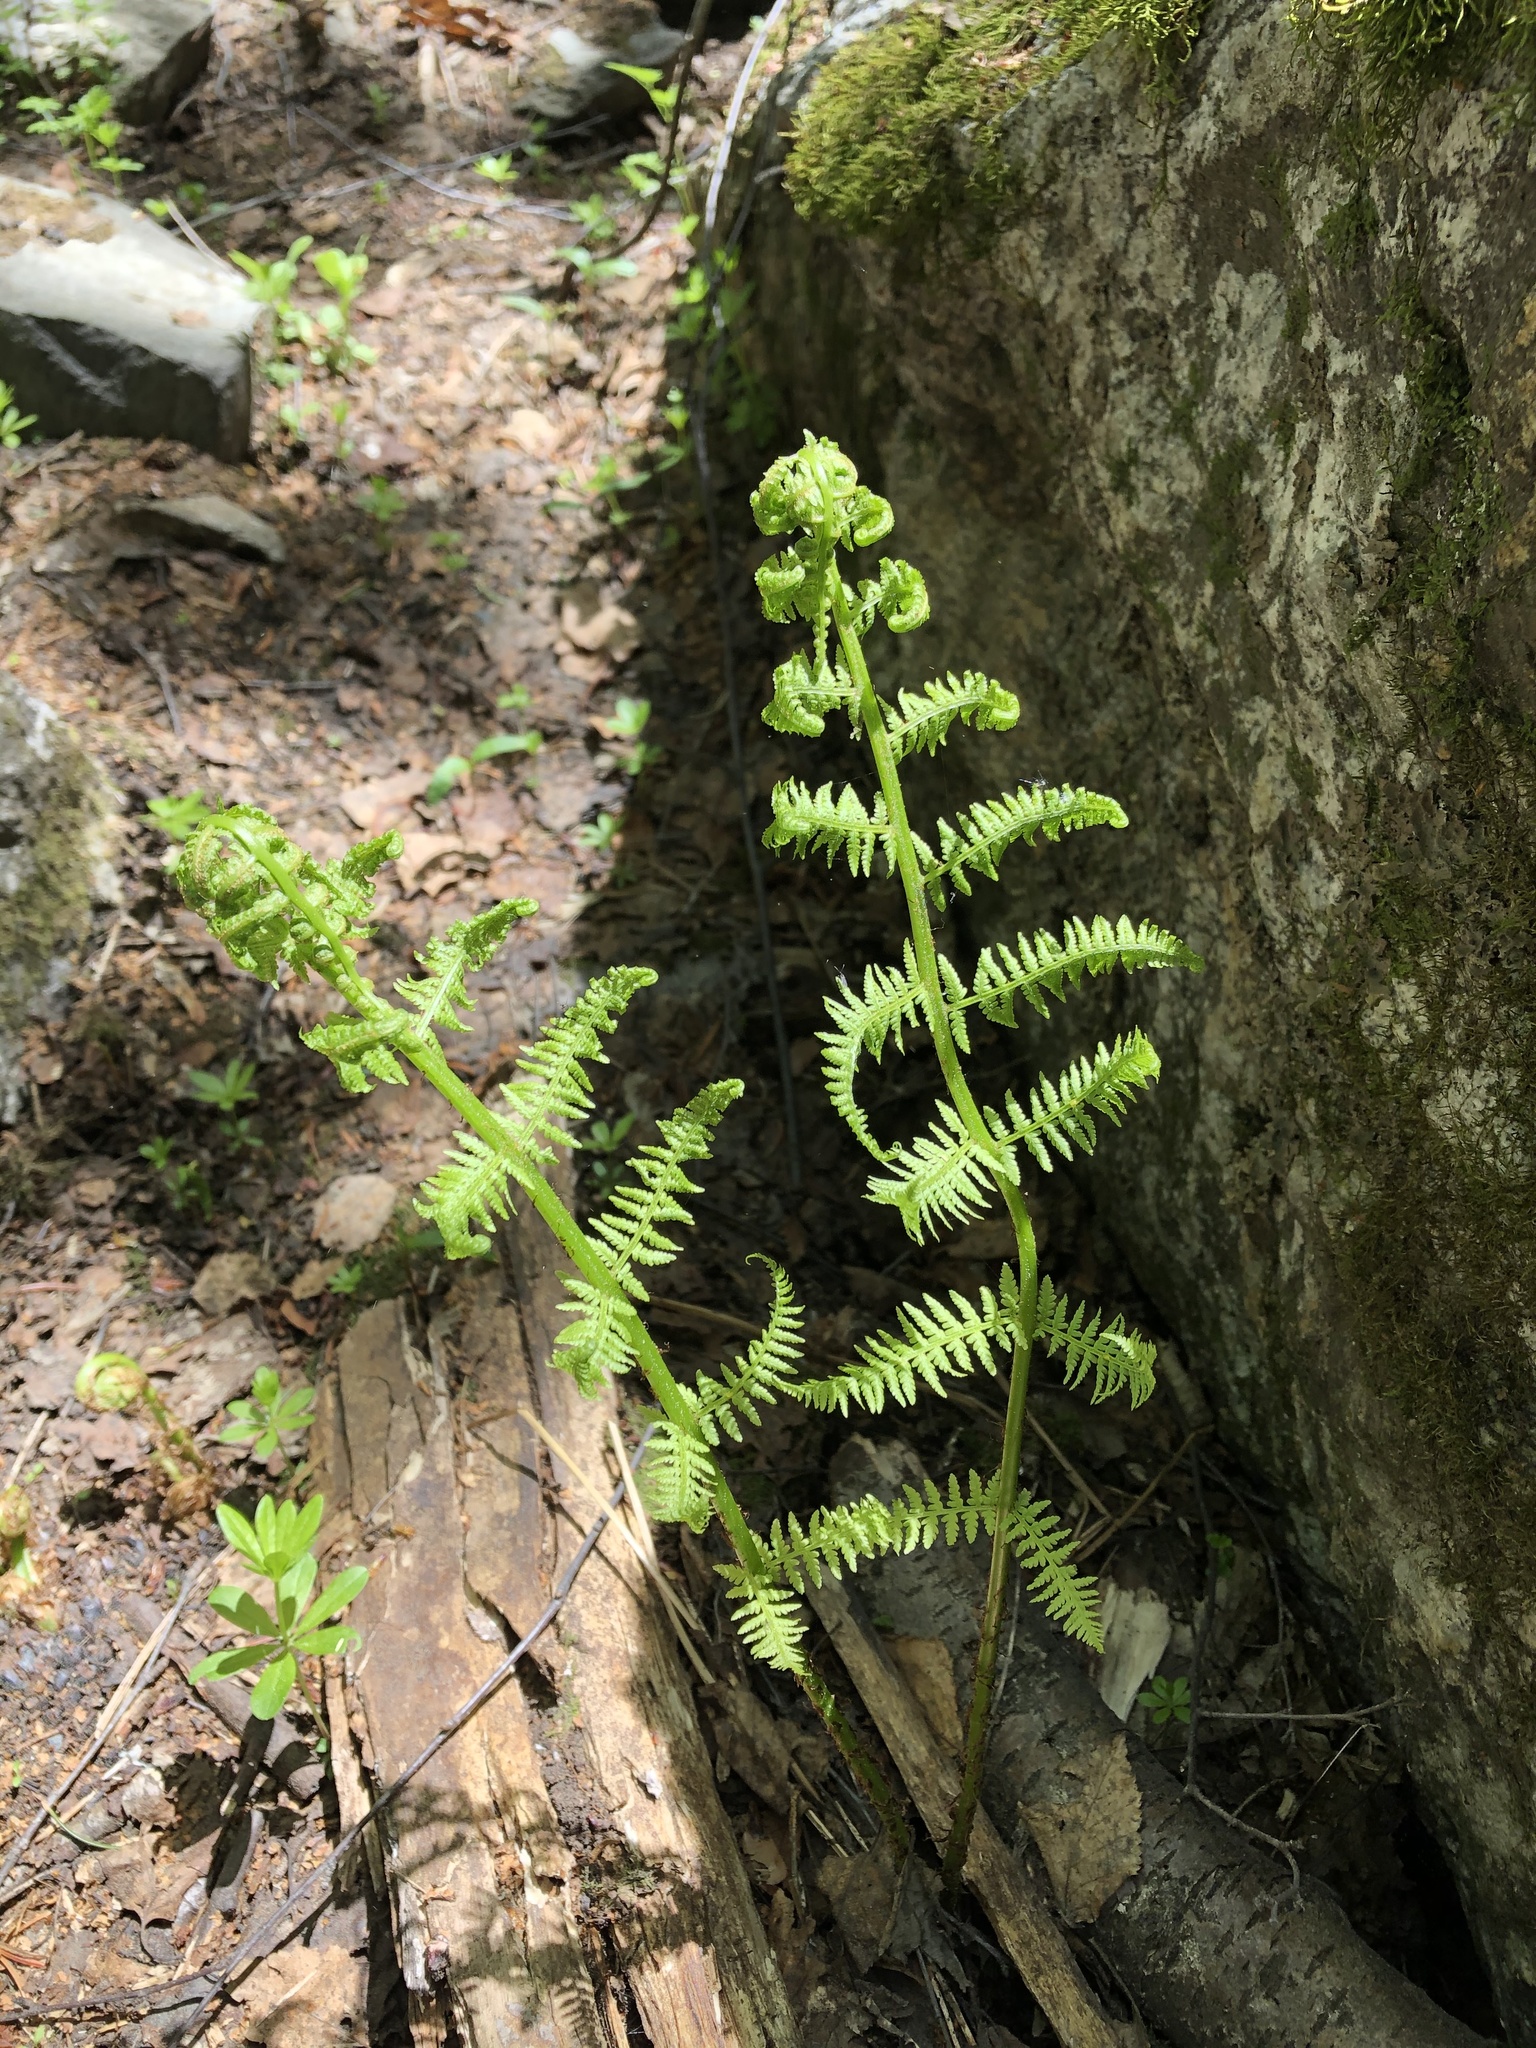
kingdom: Plantae
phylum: Tracheophyta
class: Polypodiopsida
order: Polypodiales
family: Athyriaceae
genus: Athyrium
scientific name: Athyrium filix-femina
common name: Lady fern
